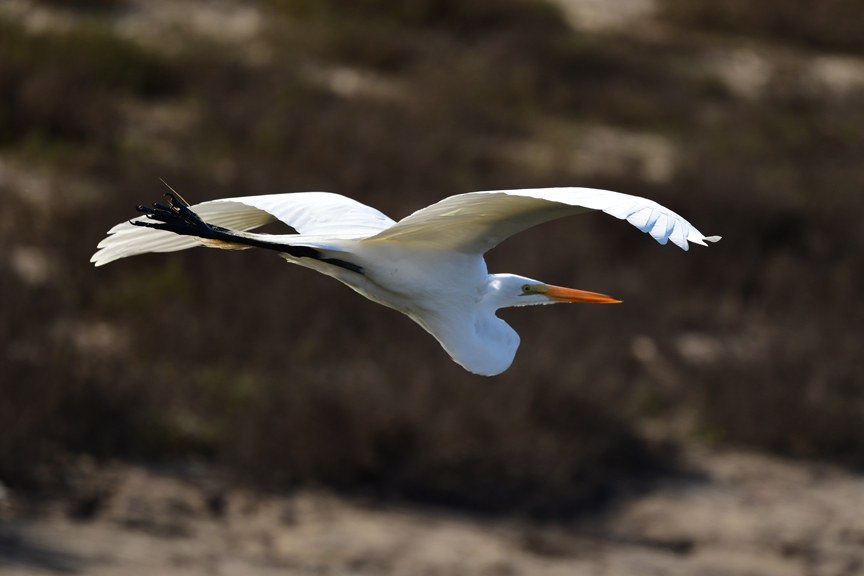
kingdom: Animalia
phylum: Chordata
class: Aves
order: Pelecaniformes
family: Ardeidae
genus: Ardea
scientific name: Ardea alba
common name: Great egret
